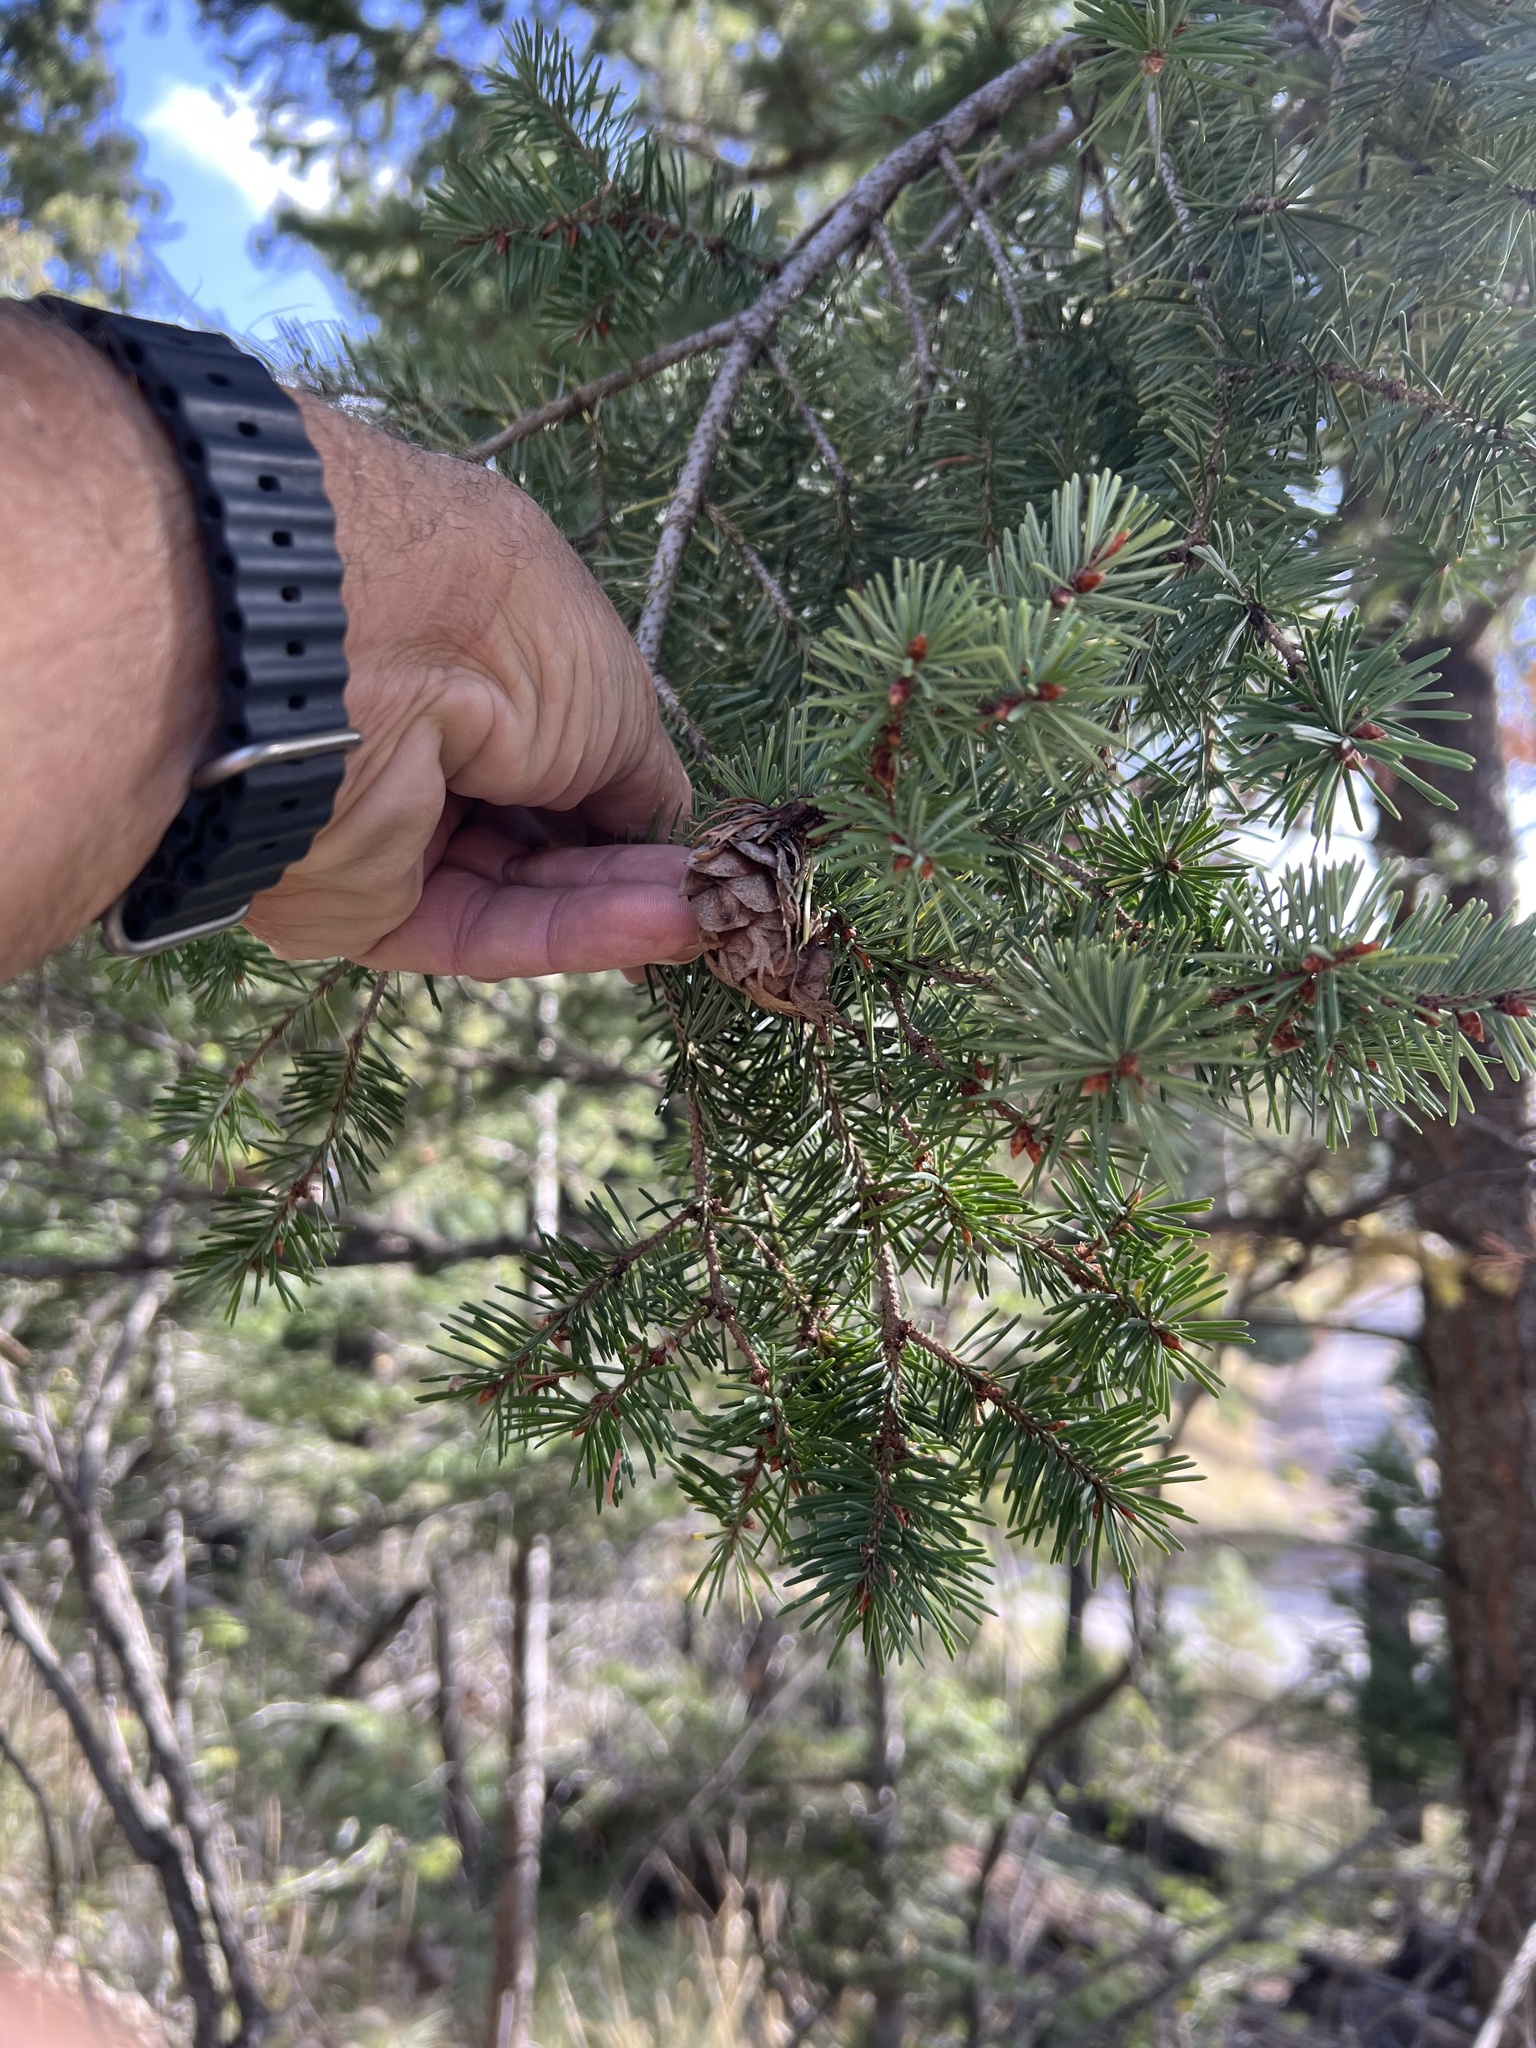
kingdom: Plantae
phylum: Tracheophyta
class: Pinopsida
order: Pinales
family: Pinaceae
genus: Pseudotsuga
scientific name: Pseudotsuga menziesii
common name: Douglas fir
